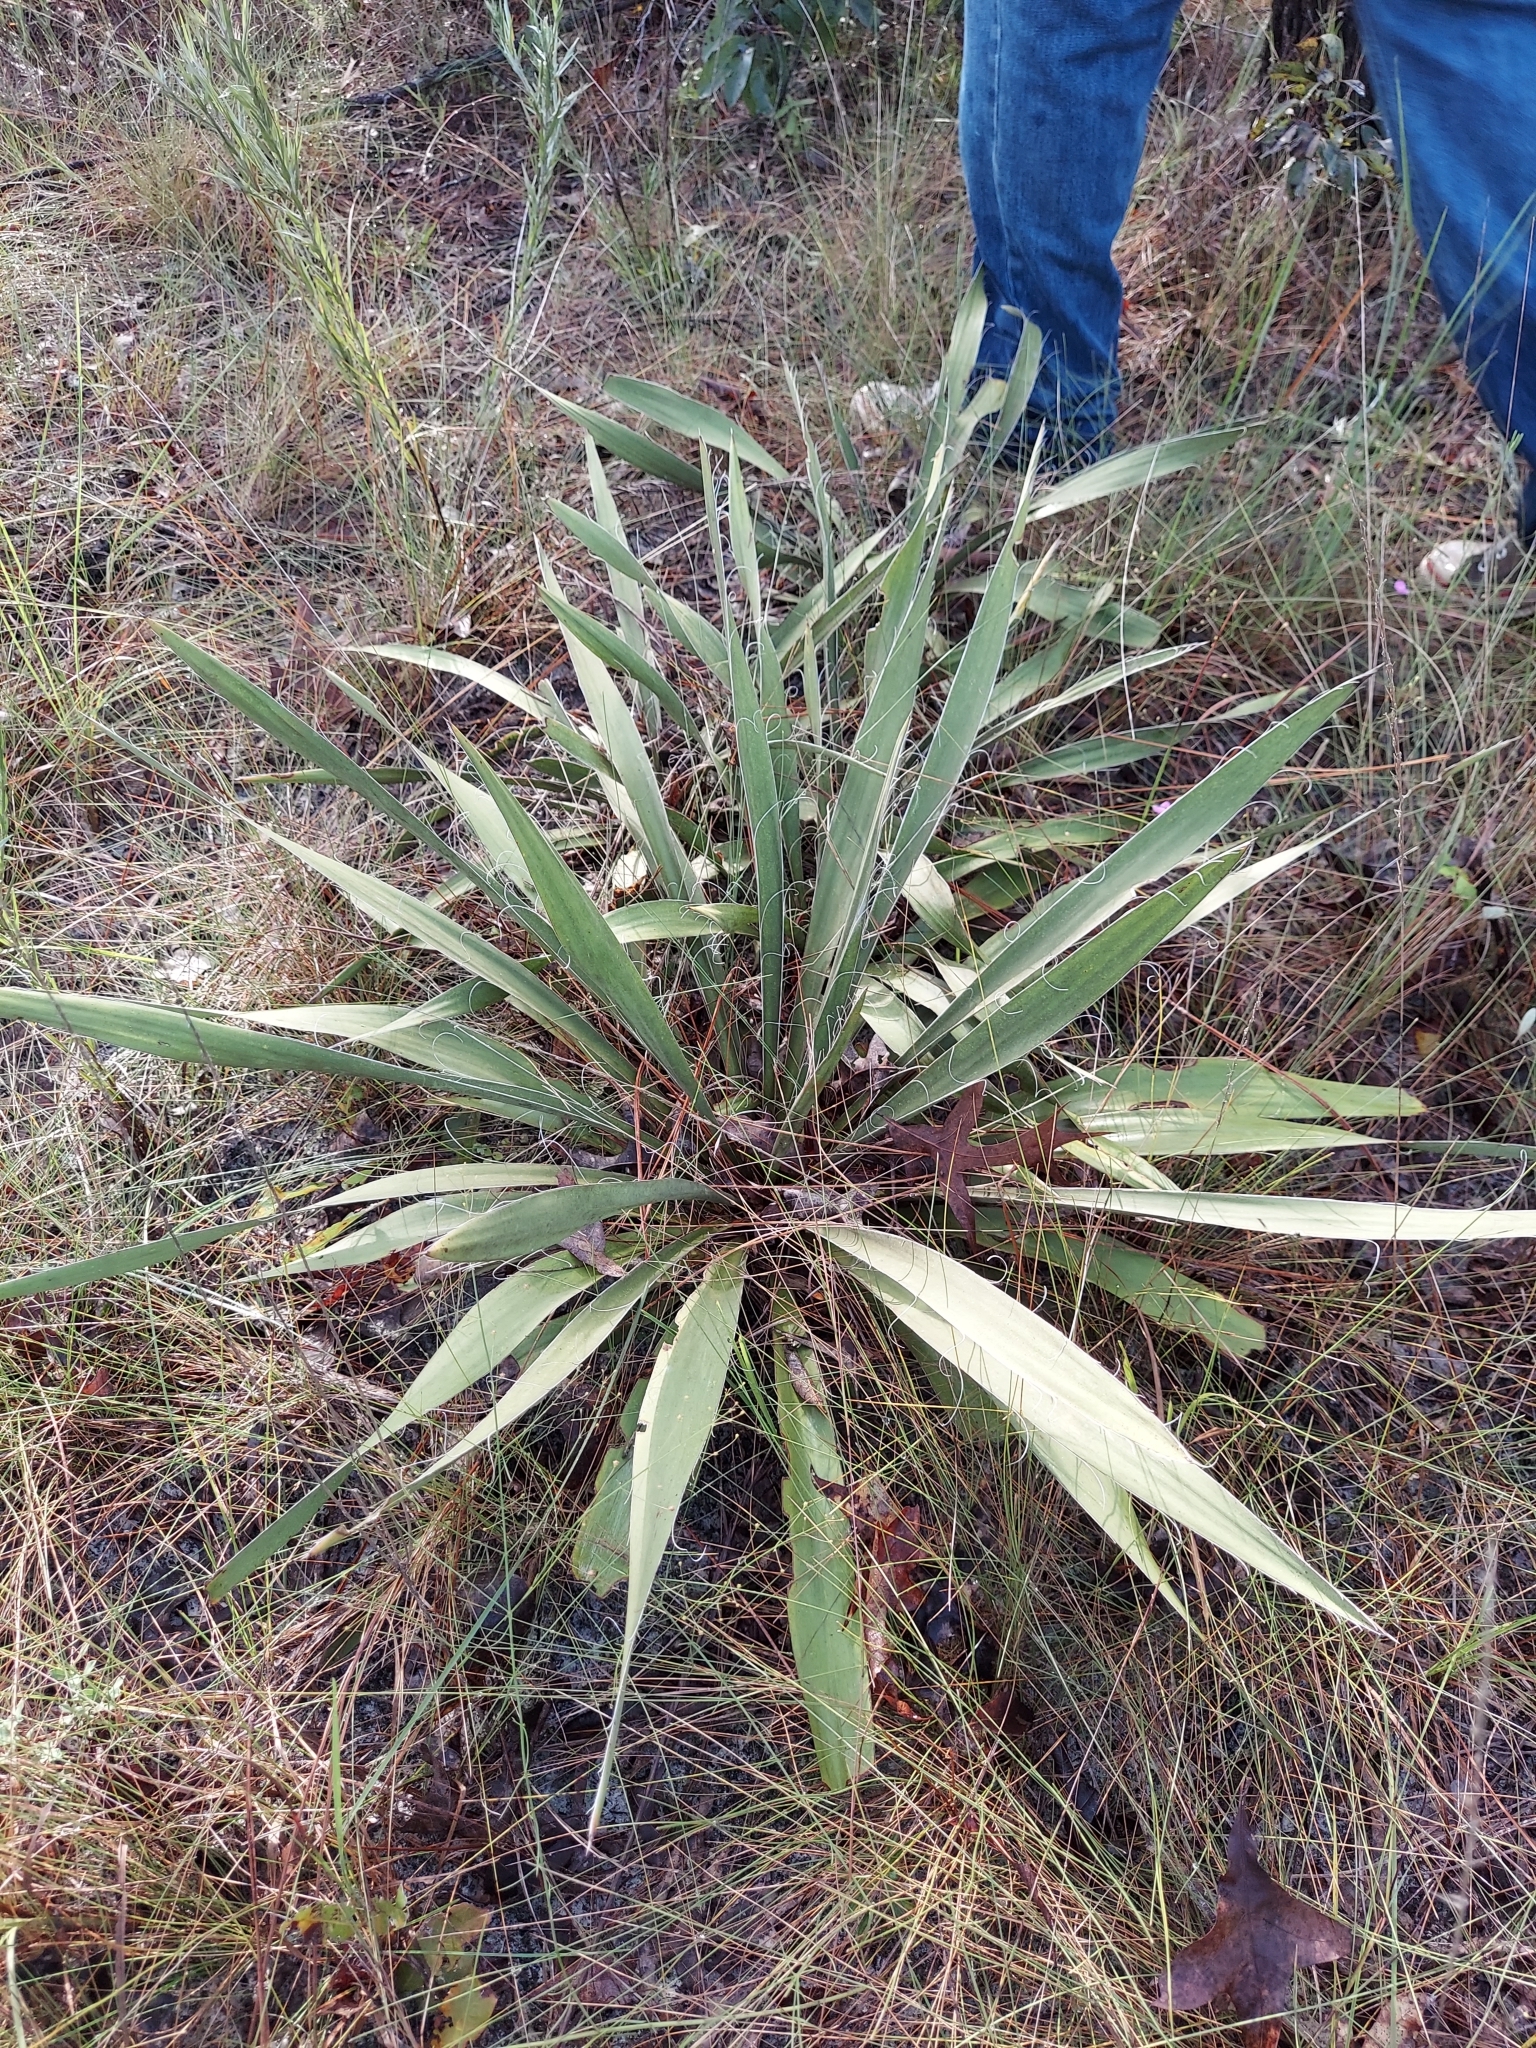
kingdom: Plantae
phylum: Tracheophyta
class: Liliopsida
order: Asparagales
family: Asparagaceae
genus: Yucca
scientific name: Yucca filamentosa
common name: Adam's-needle
